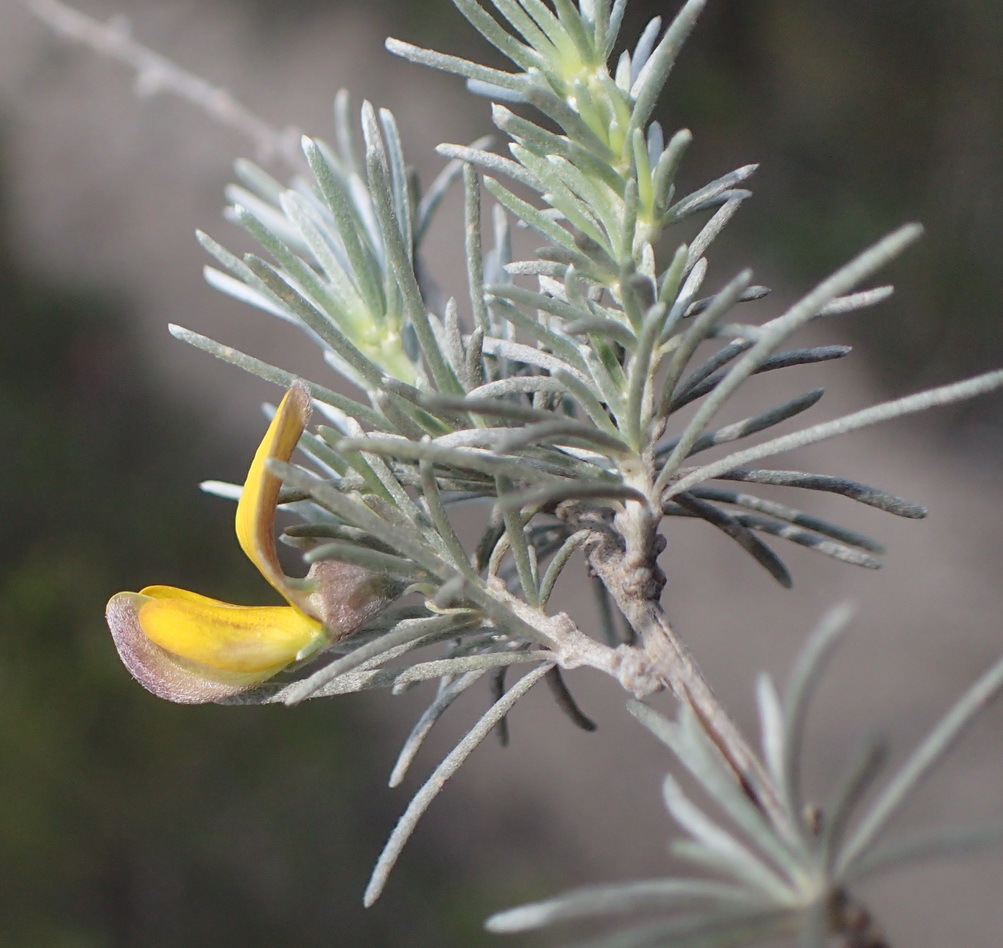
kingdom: Plantae
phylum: Tracheophyta
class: Magnoliopsida
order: Fabales
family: Fabaceae
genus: Aspalathus
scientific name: Aspalathus cinerascens
